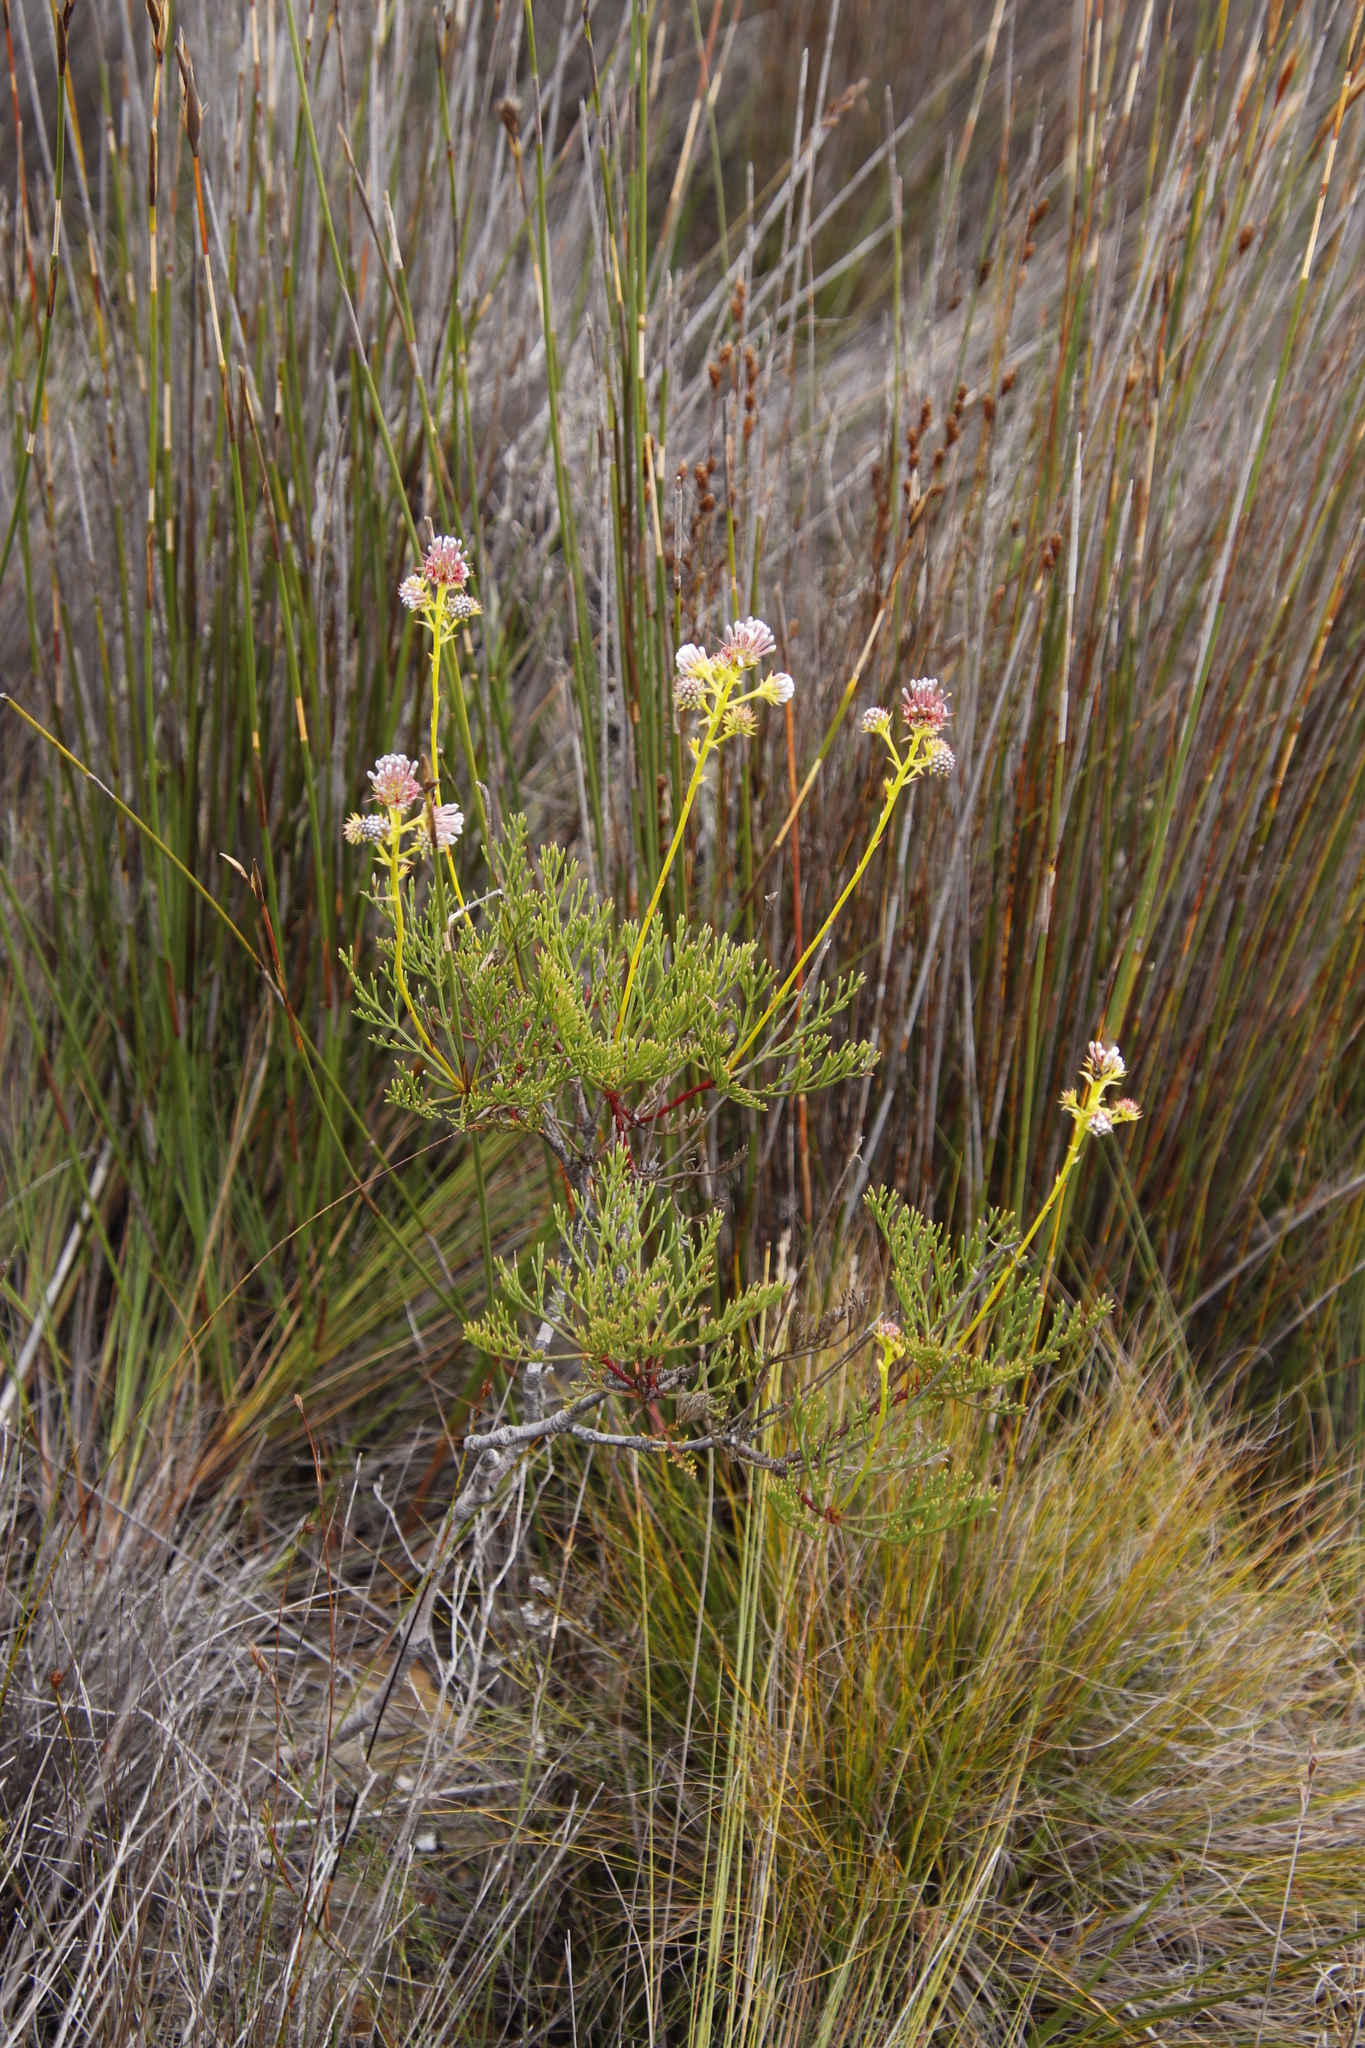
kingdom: Plantae
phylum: Tracheophyta
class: Magnoliopsida
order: Proteales
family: Proteaceae
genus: Serruria
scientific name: Serruria elongata
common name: Long-stalk spiderhead
